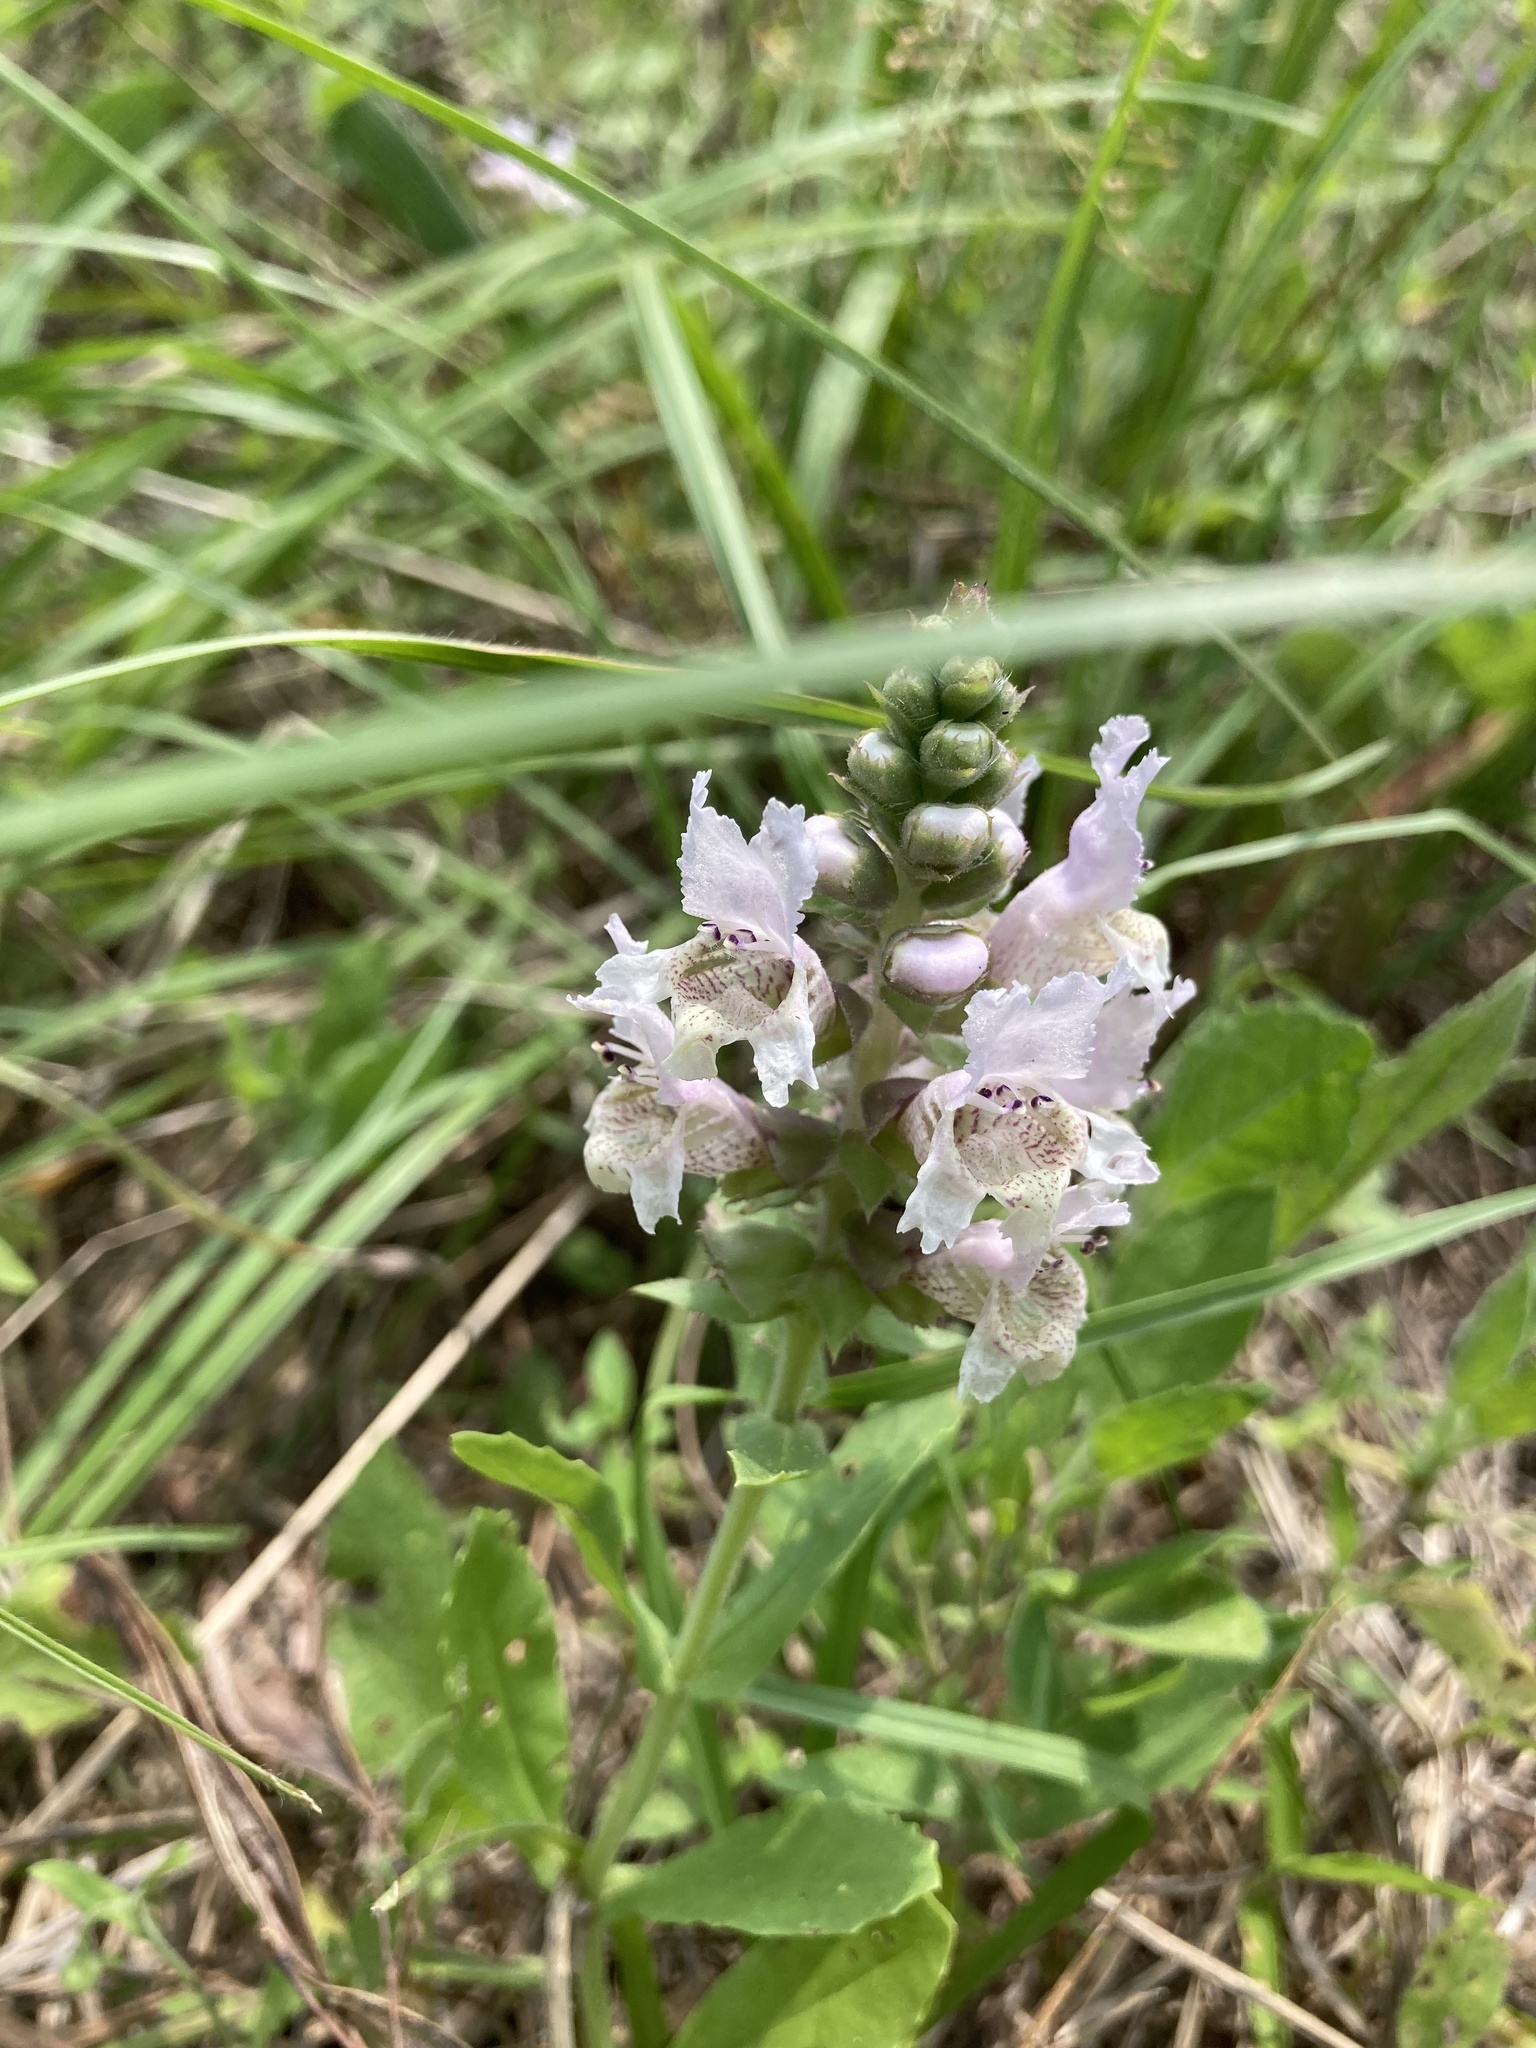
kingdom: Plantae
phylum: Tracheophyta
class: Magnoliopsida
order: Lamiales
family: Lamiaceae
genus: Brazoria
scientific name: Brazoria truncata
